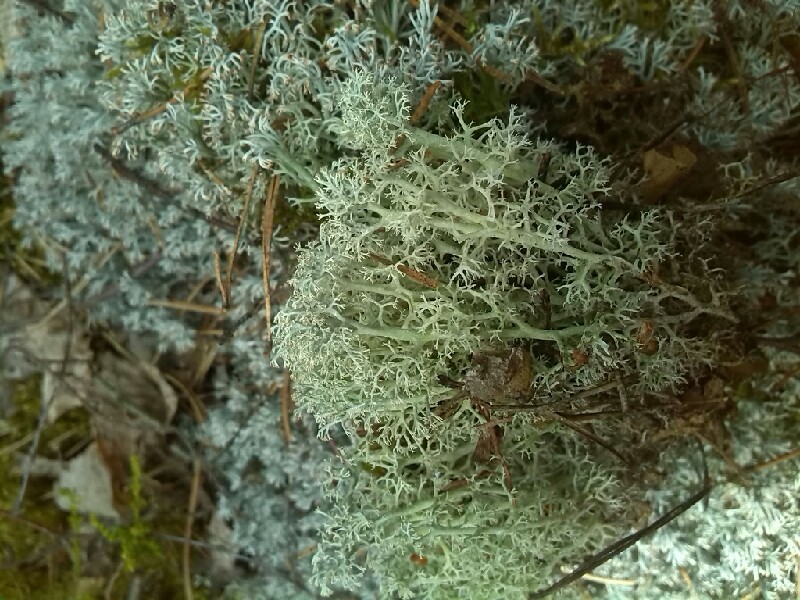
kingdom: Fungi
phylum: Ascomycota
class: Lecanoromycetes
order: Lecanorales
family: Cladoniaceae
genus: Cladonia
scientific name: Cladonia arbuscula
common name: Reindeer lichen
